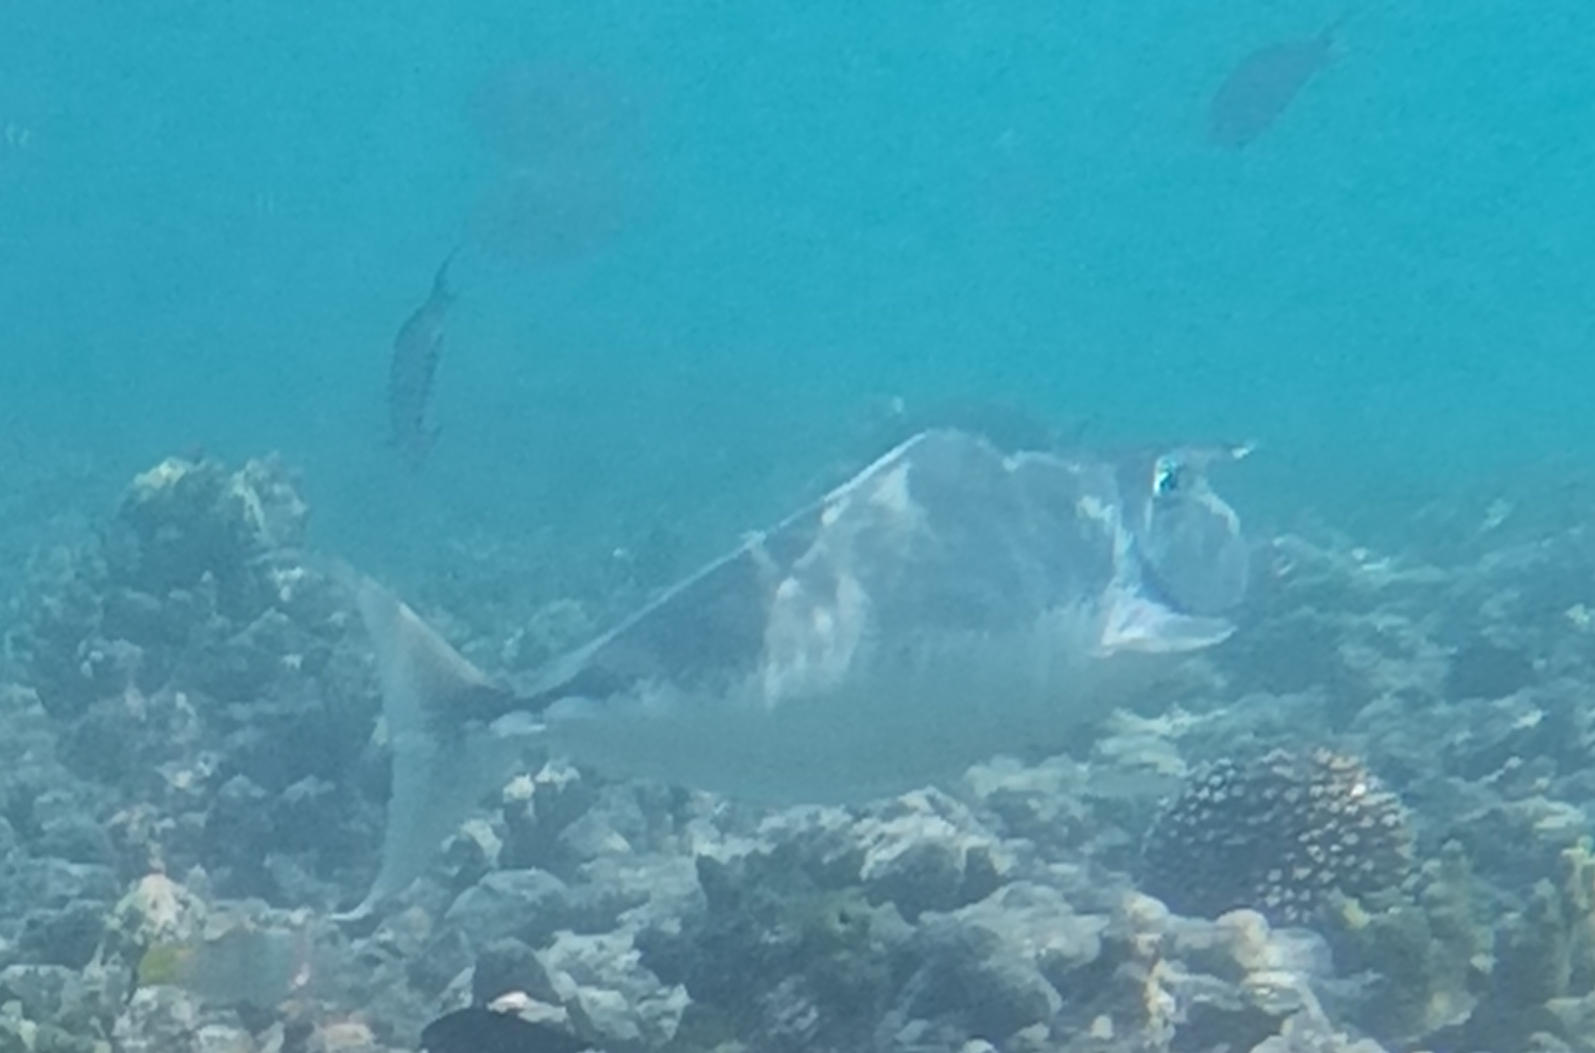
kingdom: Animalia
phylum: Chordata
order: Perciformes
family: Acanthuridae
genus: Naso
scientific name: Naso brachycentron
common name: Humpback unicornfish
